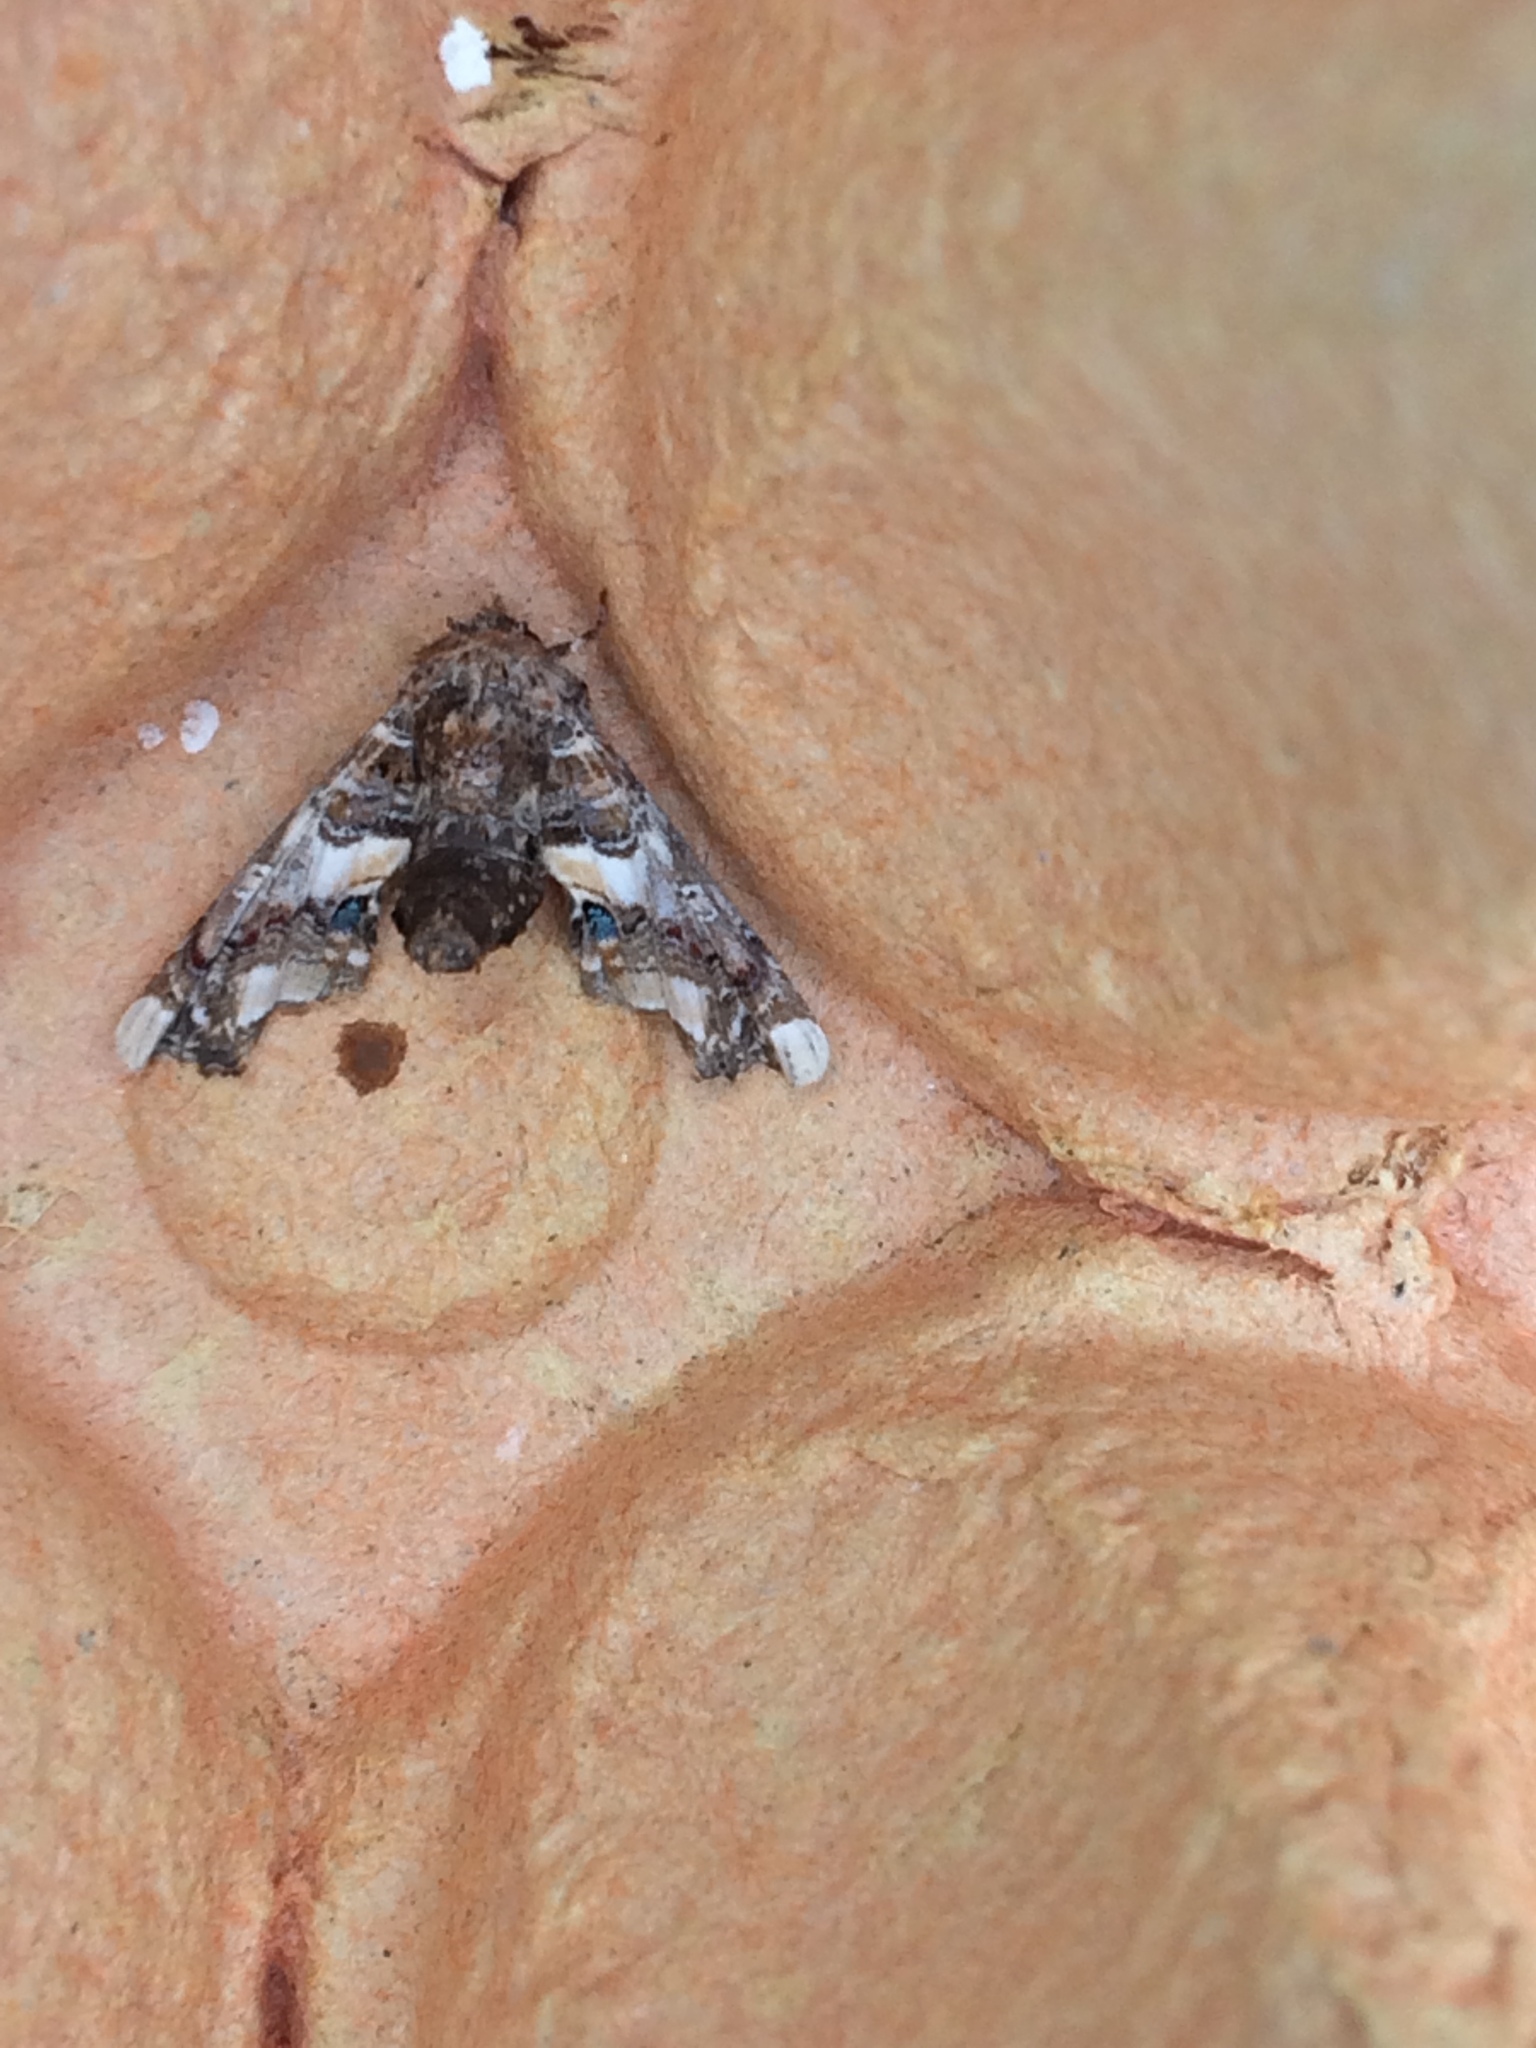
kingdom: Animalia
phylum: Arthropoda
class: Insecta
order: Lepidoptera
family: Euteliidae
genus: Eutelia
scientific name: Eutelia adulatrix
